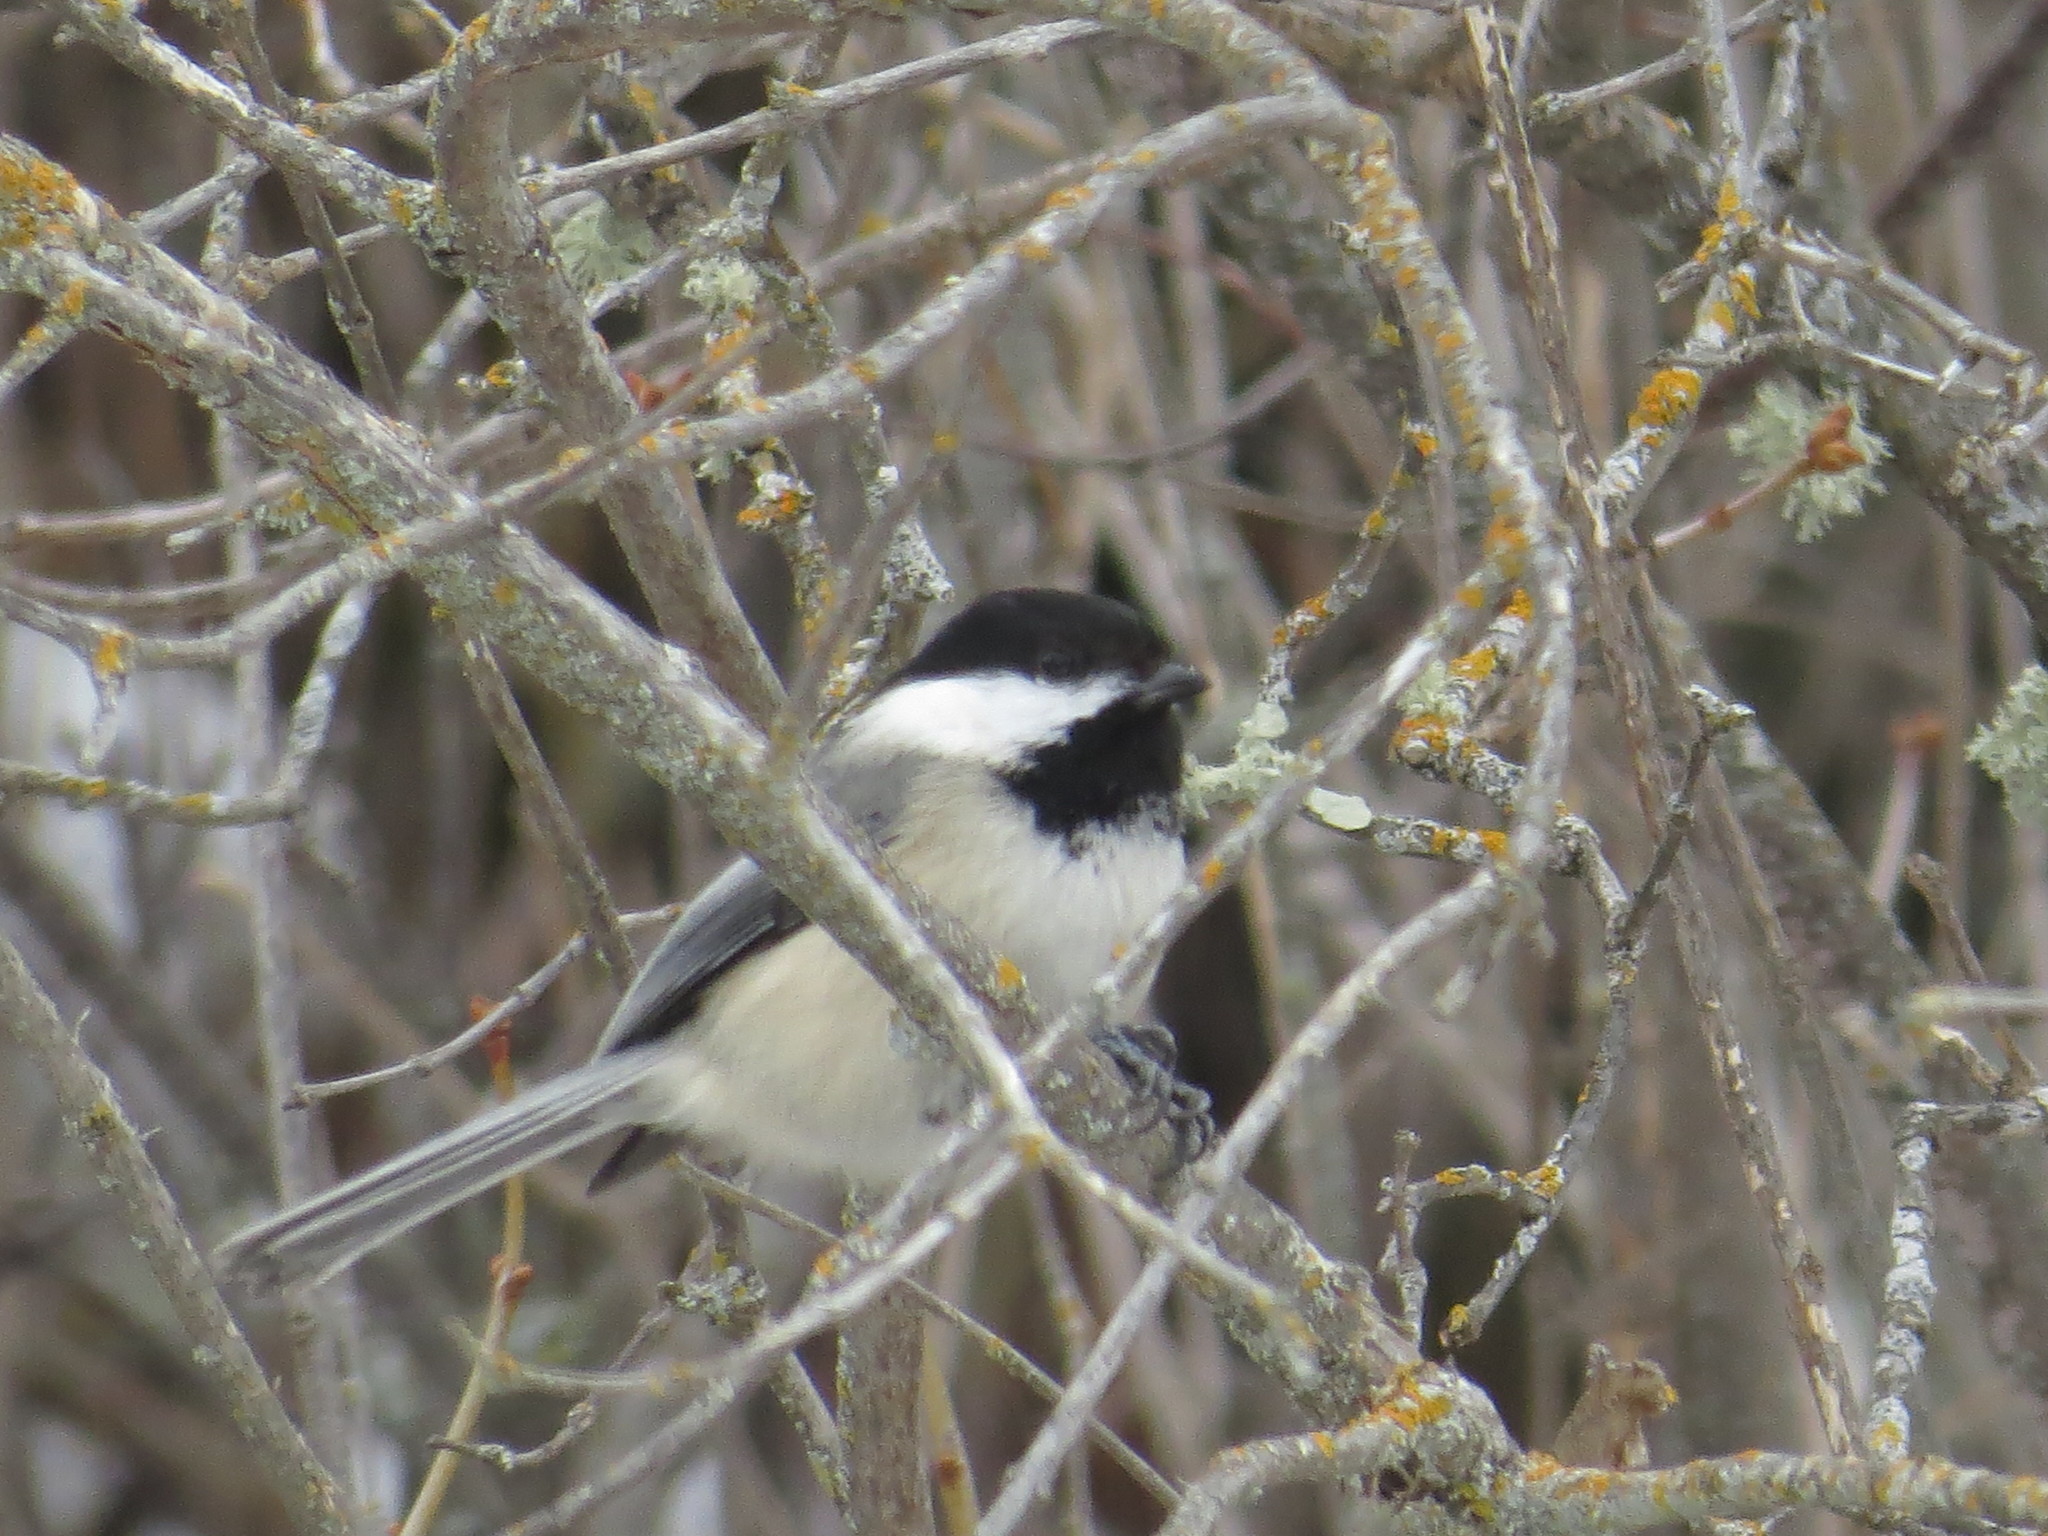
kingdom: Animalia
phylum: Chordata
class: Aves
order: Passeriformes
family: Paridae
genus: Poecile
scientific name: Poecile atricapillus
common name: Black-capped chickadee
